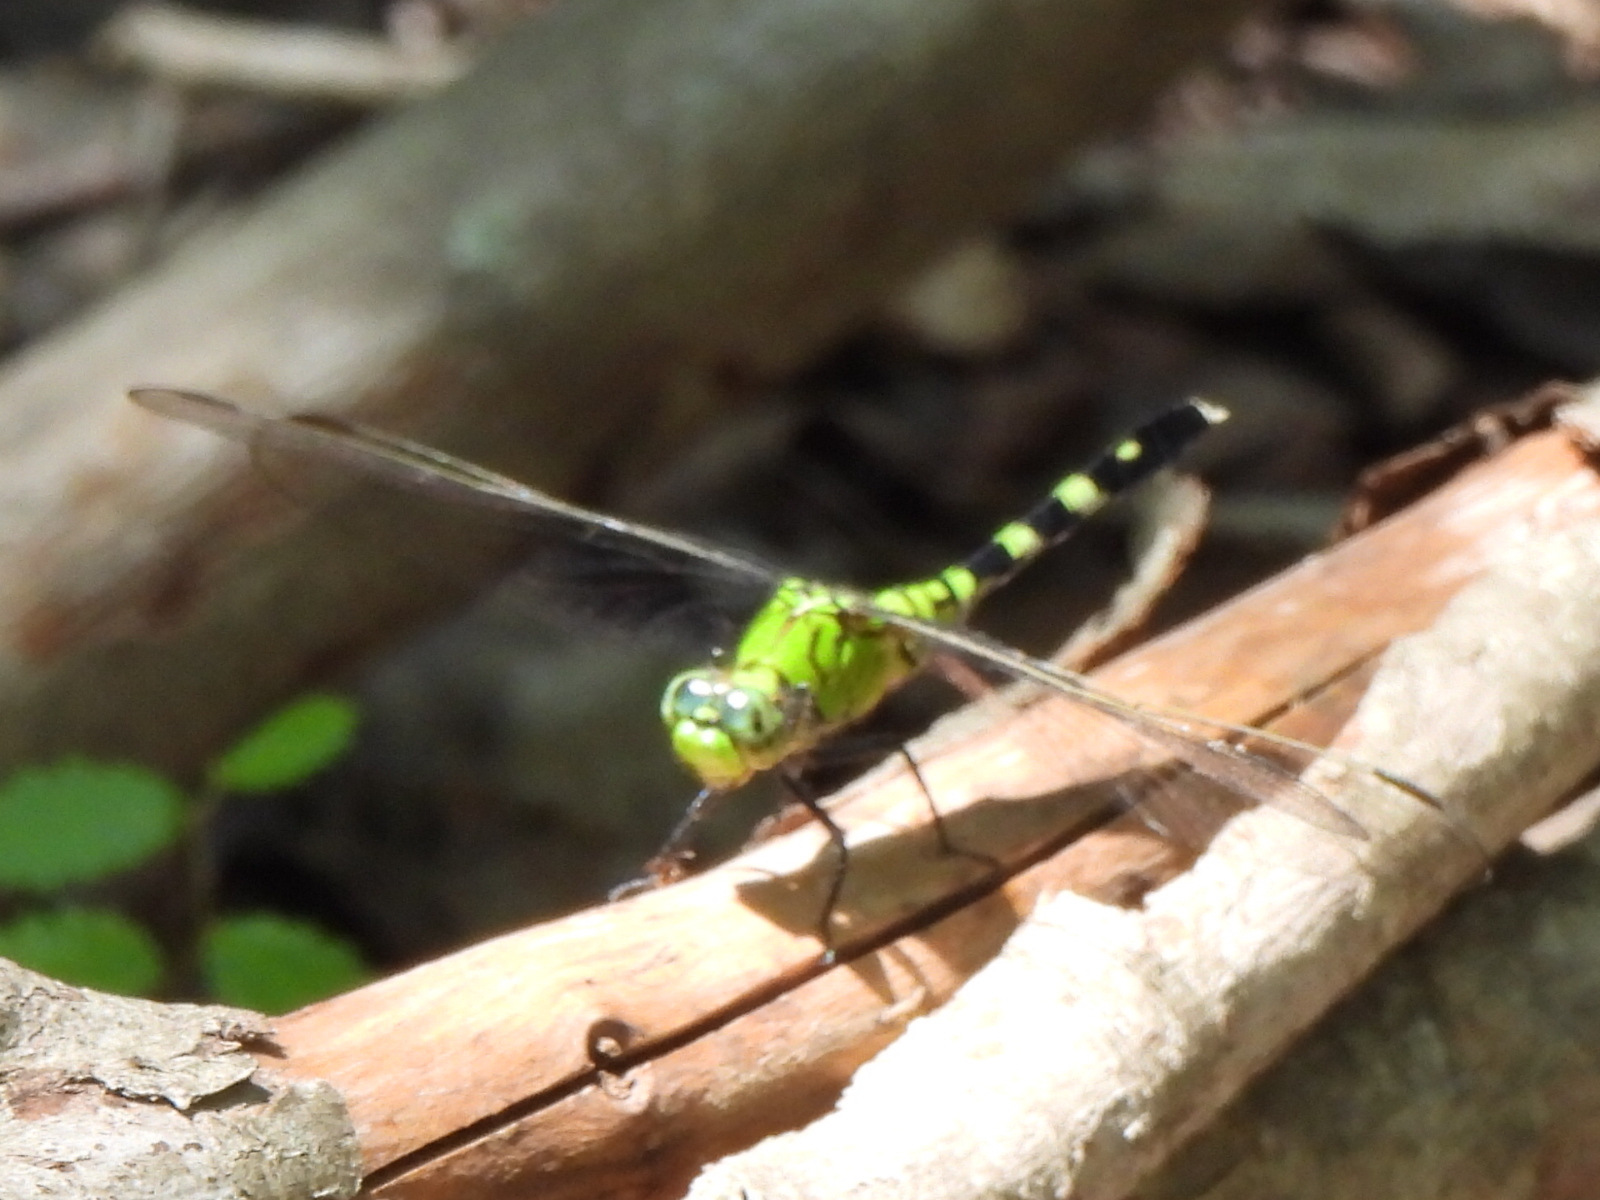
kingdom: Animalia
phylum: Arthropoda
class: Insecta
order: Odonata
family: Libellulidae
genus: Erythemis
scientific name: Erythemis simplicicollis
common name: Eastern pondhawk
